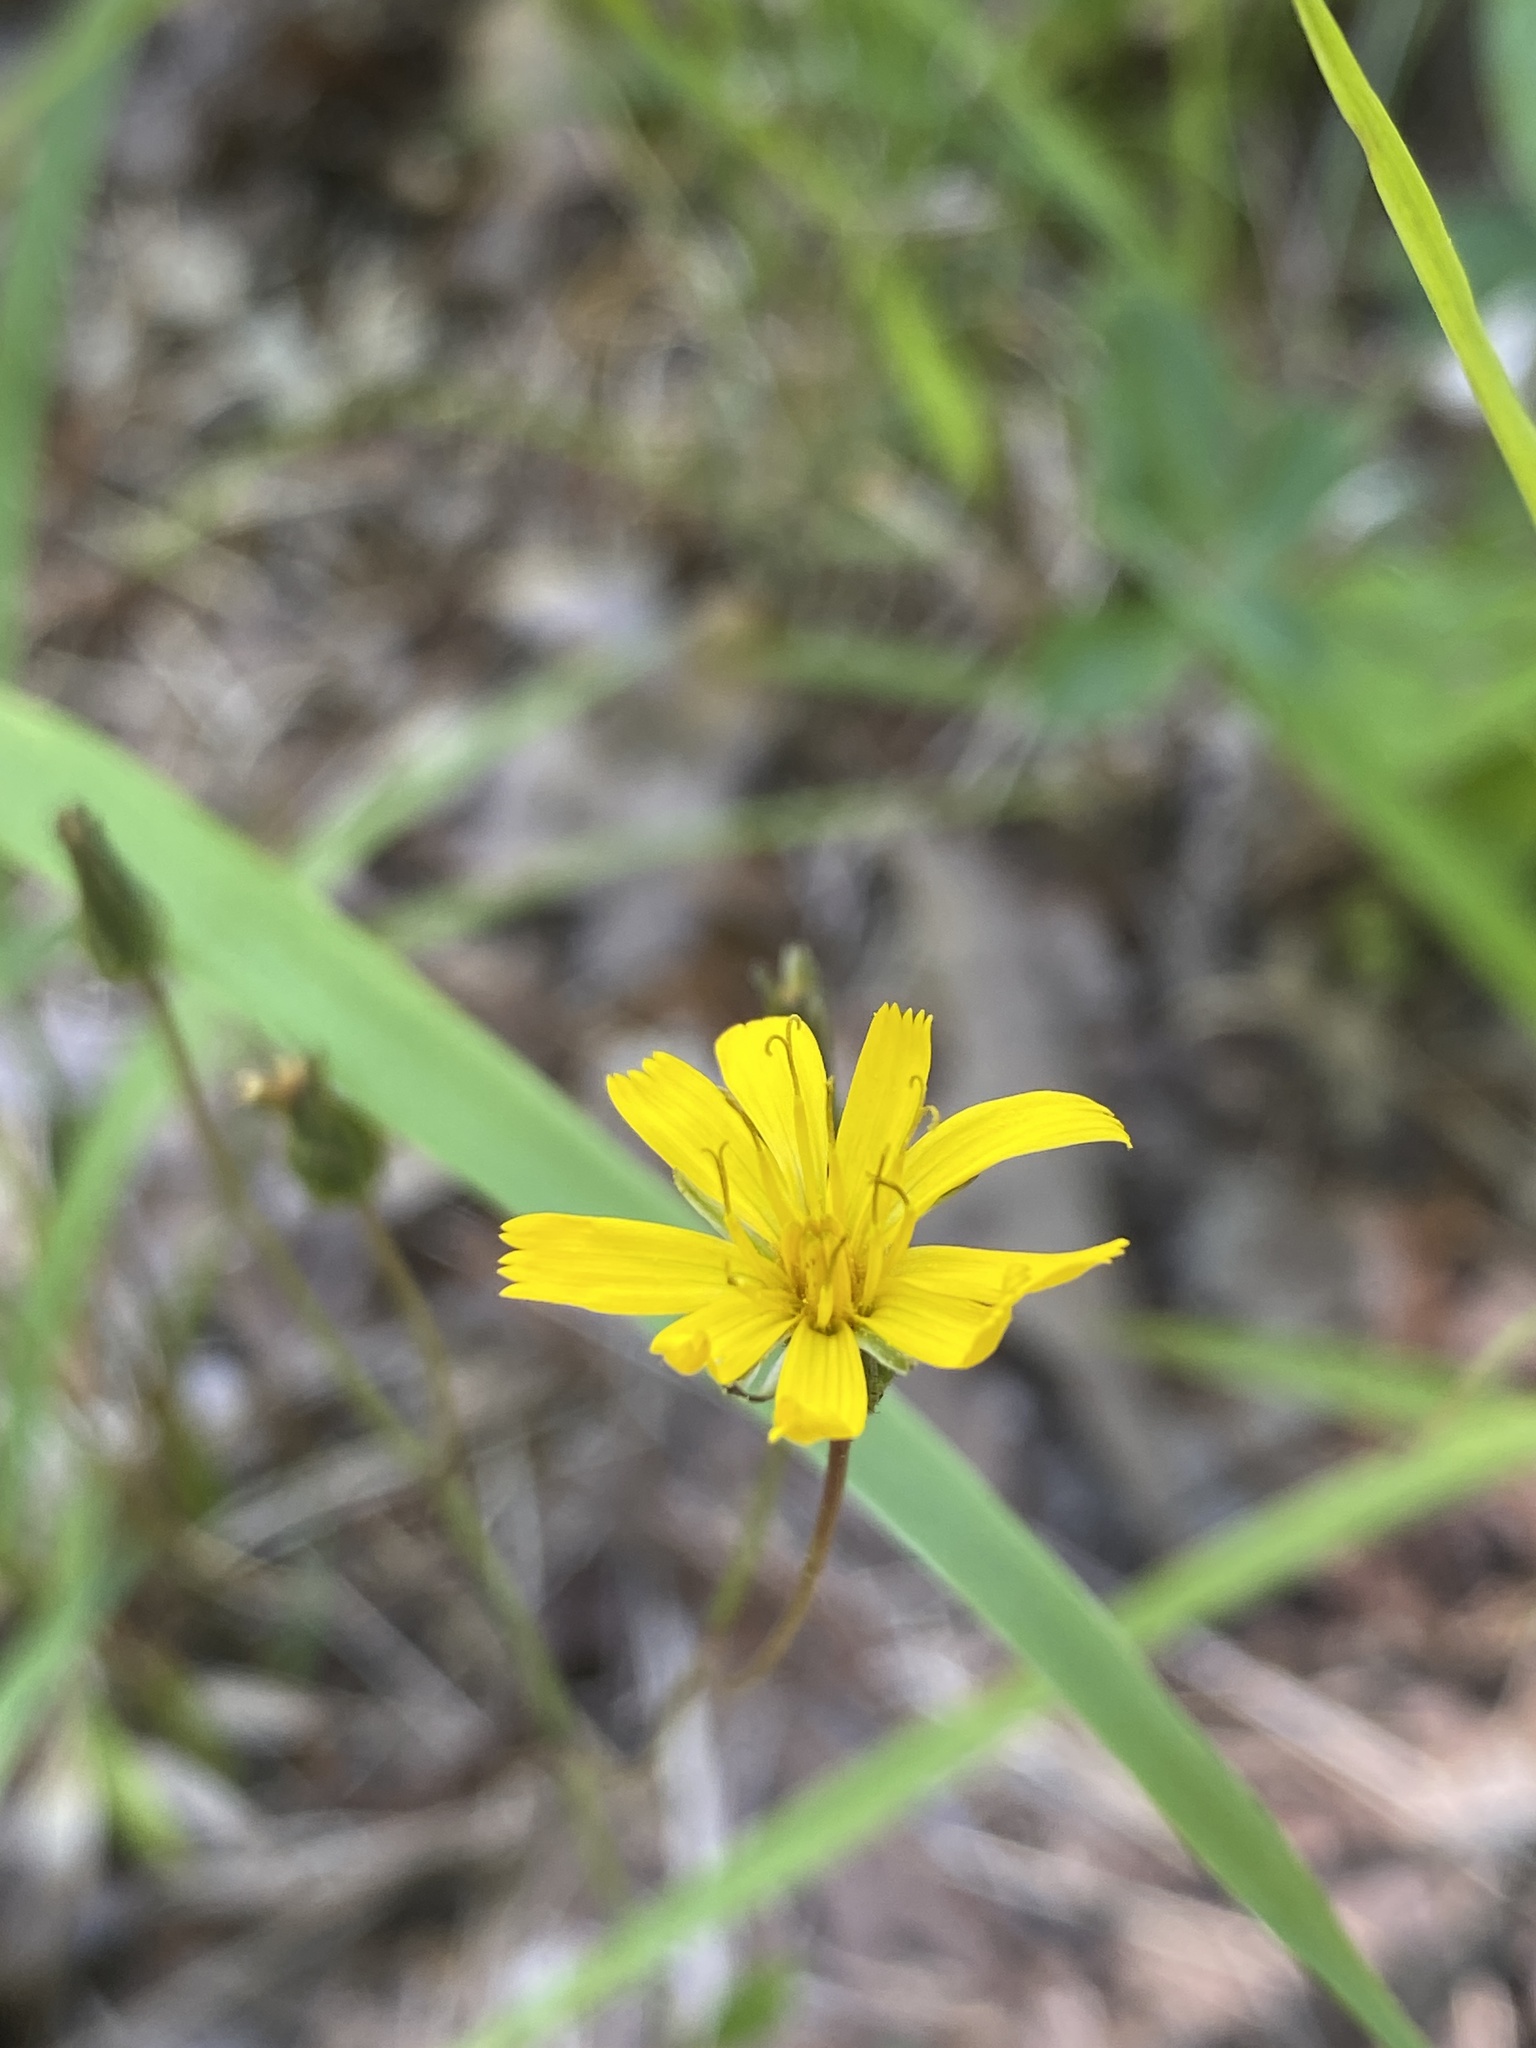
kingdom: Plantae
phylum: Tracheophyta
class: Magnoliopsida
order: Asterales
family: Asteraceae
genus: Hieracium
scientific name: Hieracium venosum
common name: Rattlesnake hawkweed
